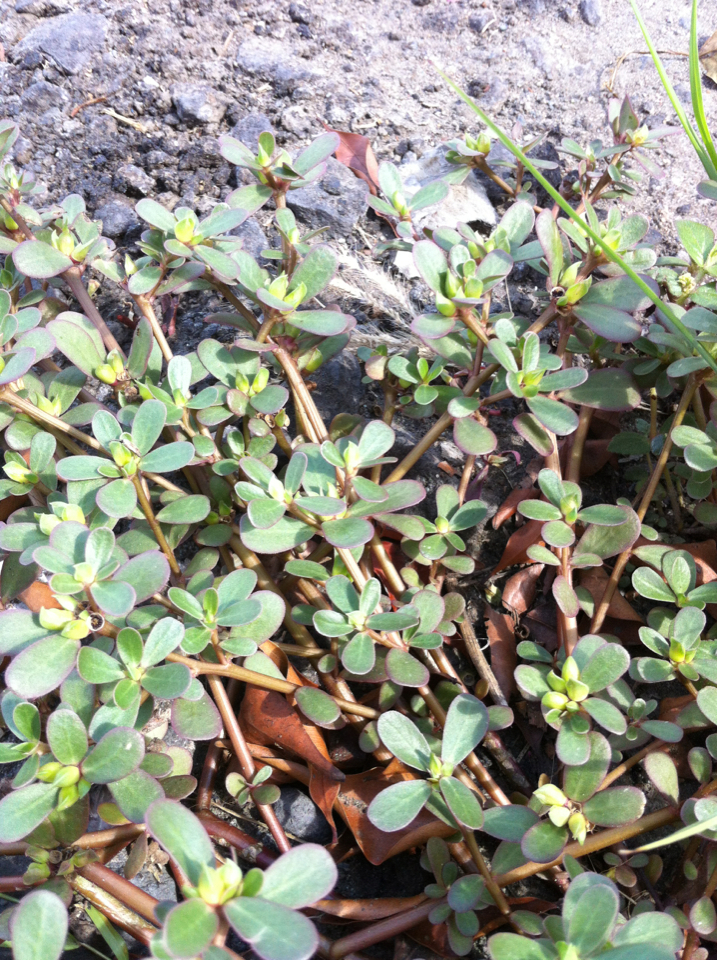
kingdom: Plantae
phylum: Tracheophyta
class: Magnoliopsida
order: Caryophyllales
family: Portulacaceae
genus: Portulaca
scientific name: Portulaca oleracea
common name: Common purslane
